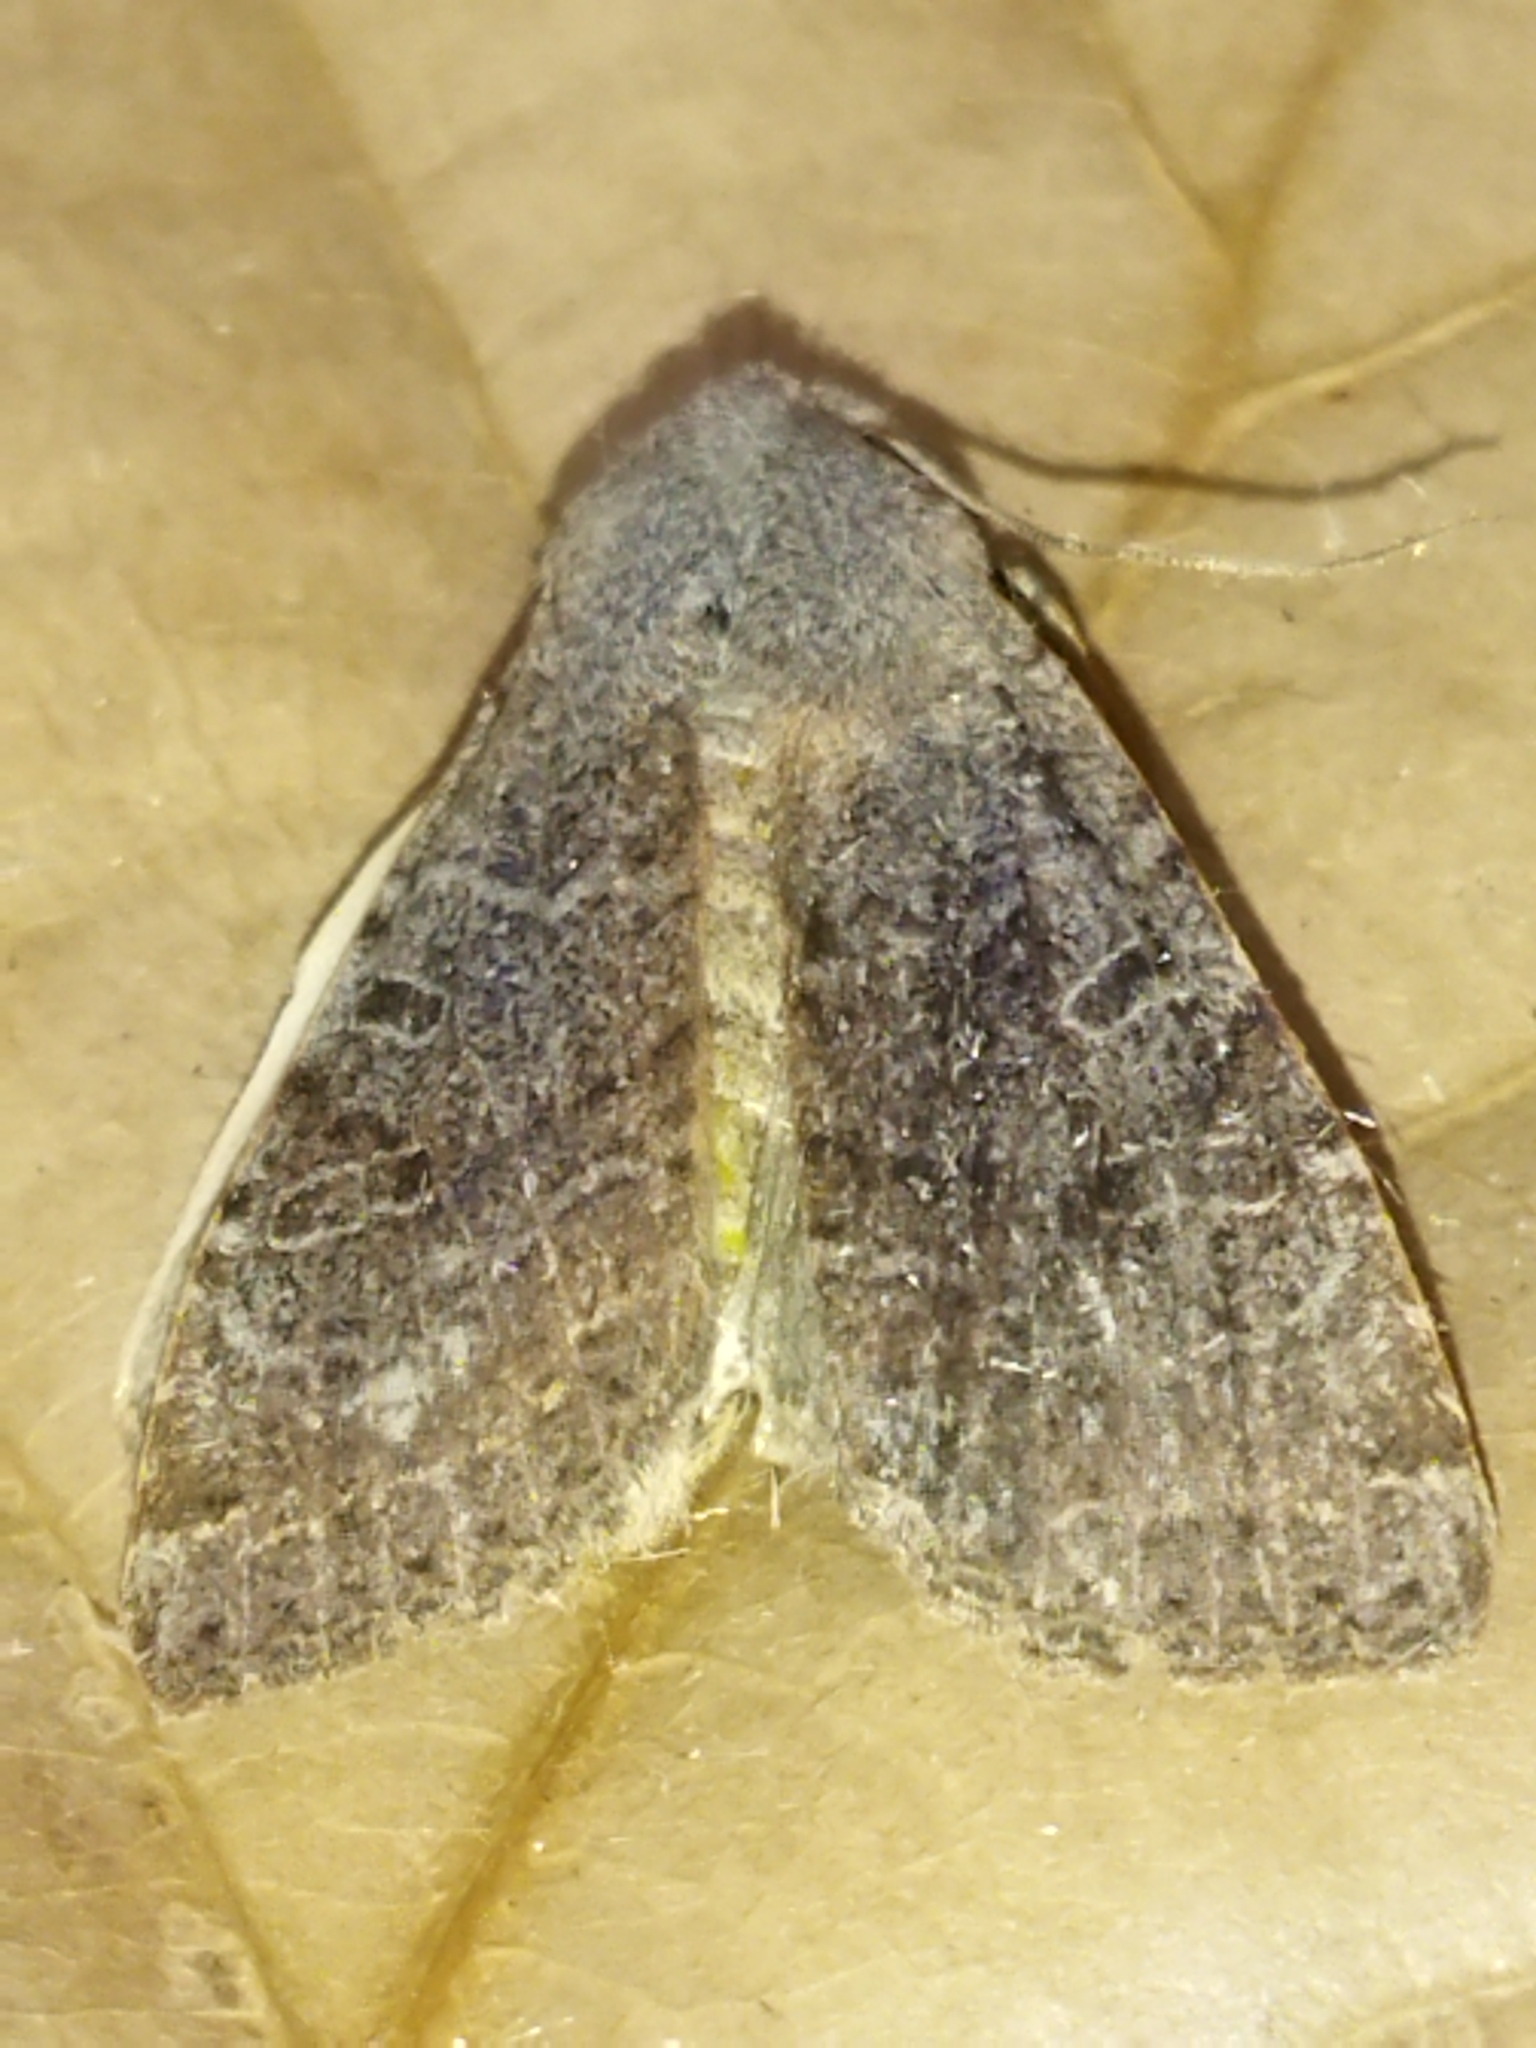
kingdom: Animalia
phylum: Arthropoda
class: Insecta
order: Lepidoptera
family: Noctuidae
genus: Agrochola
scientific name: Agrochola lychnidis
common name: Beaded chestnut
